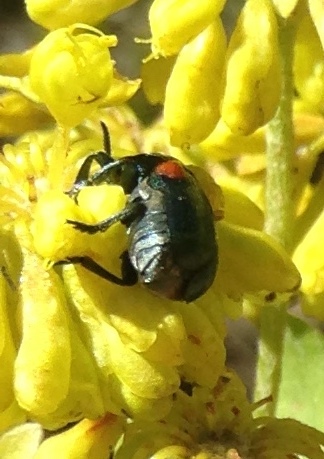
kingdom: Animalia
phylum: Arthropoda
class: Insecta
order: Coleoptera
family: Chrysomelidae
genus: Saxinis
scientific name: Saxinis saucia
